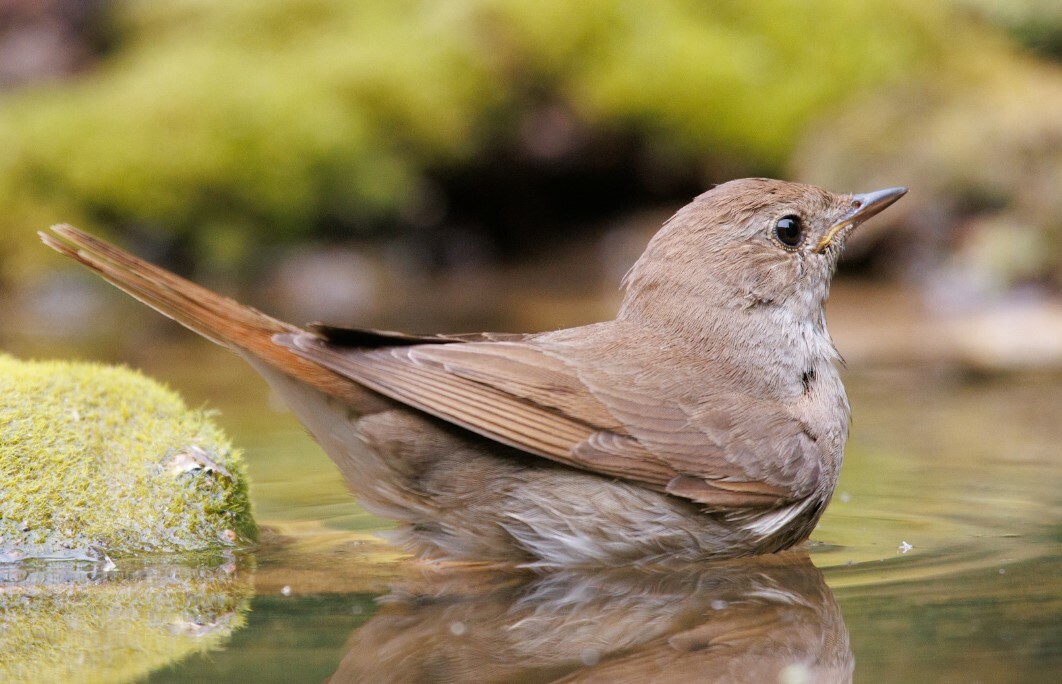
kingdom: Animalia
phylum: Chordata
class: Aves
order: Passeriformes
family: Muscicapidae
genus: Luscinia
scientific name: Luscinia luscinia
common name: Thrush nightingale
